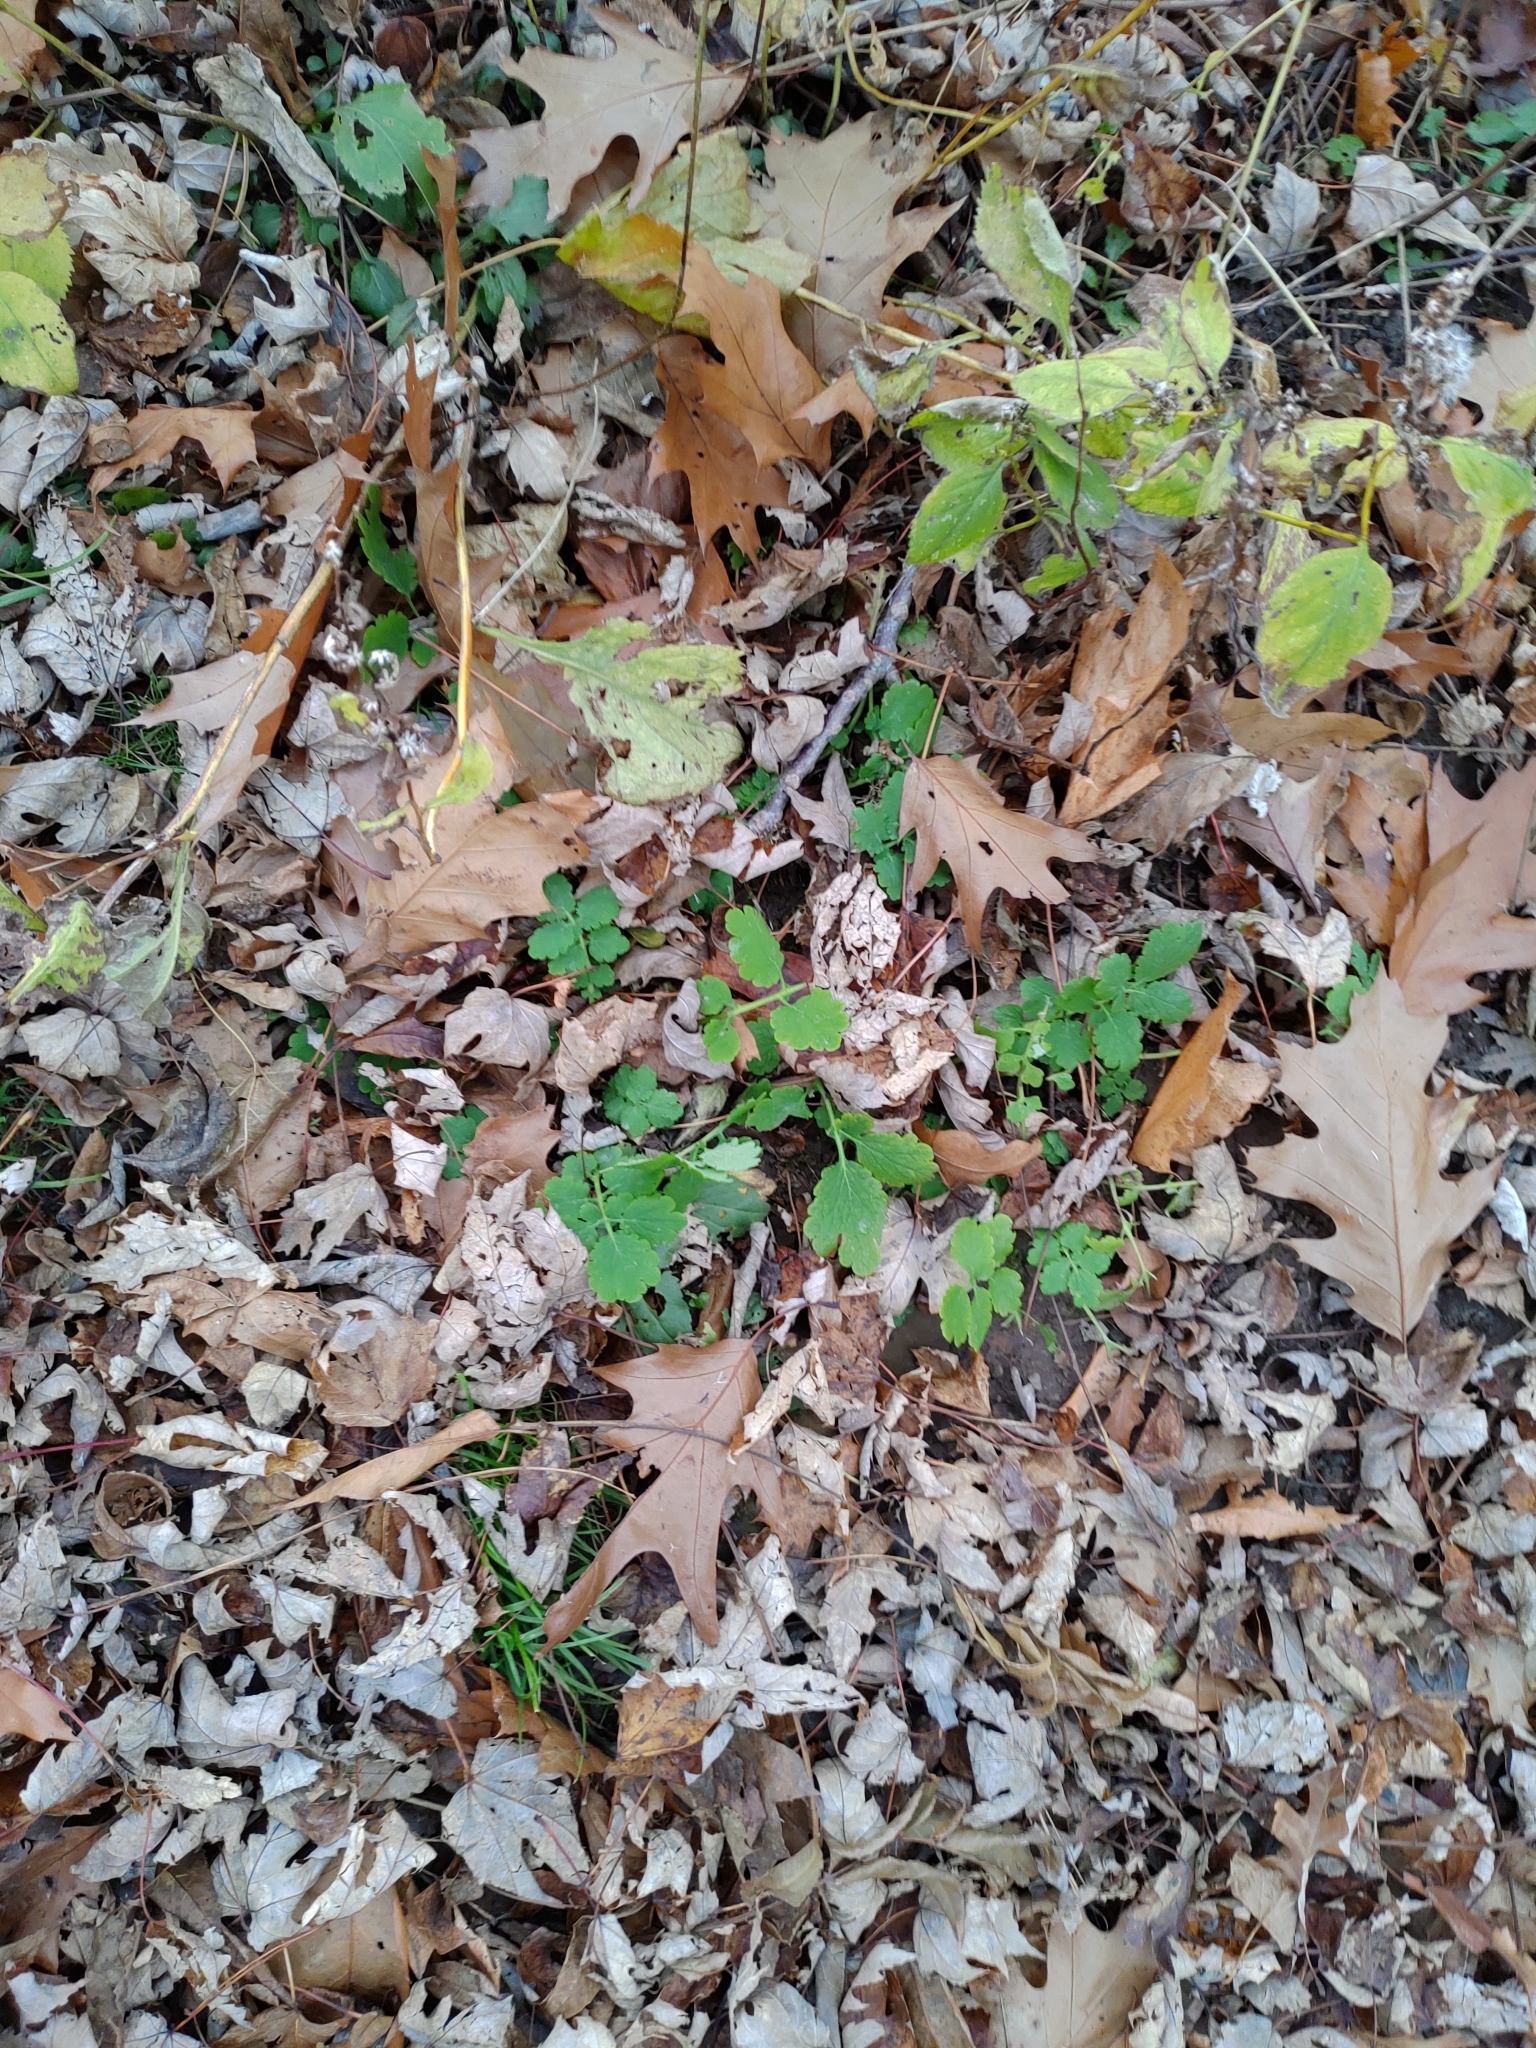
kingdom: Plantae
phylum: Tracheophyta
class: Magnoliopsida
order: Ranunculales
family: Papaveraceae
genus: Chelidonium
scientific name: Chelidonium majus
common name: Greater celandine
